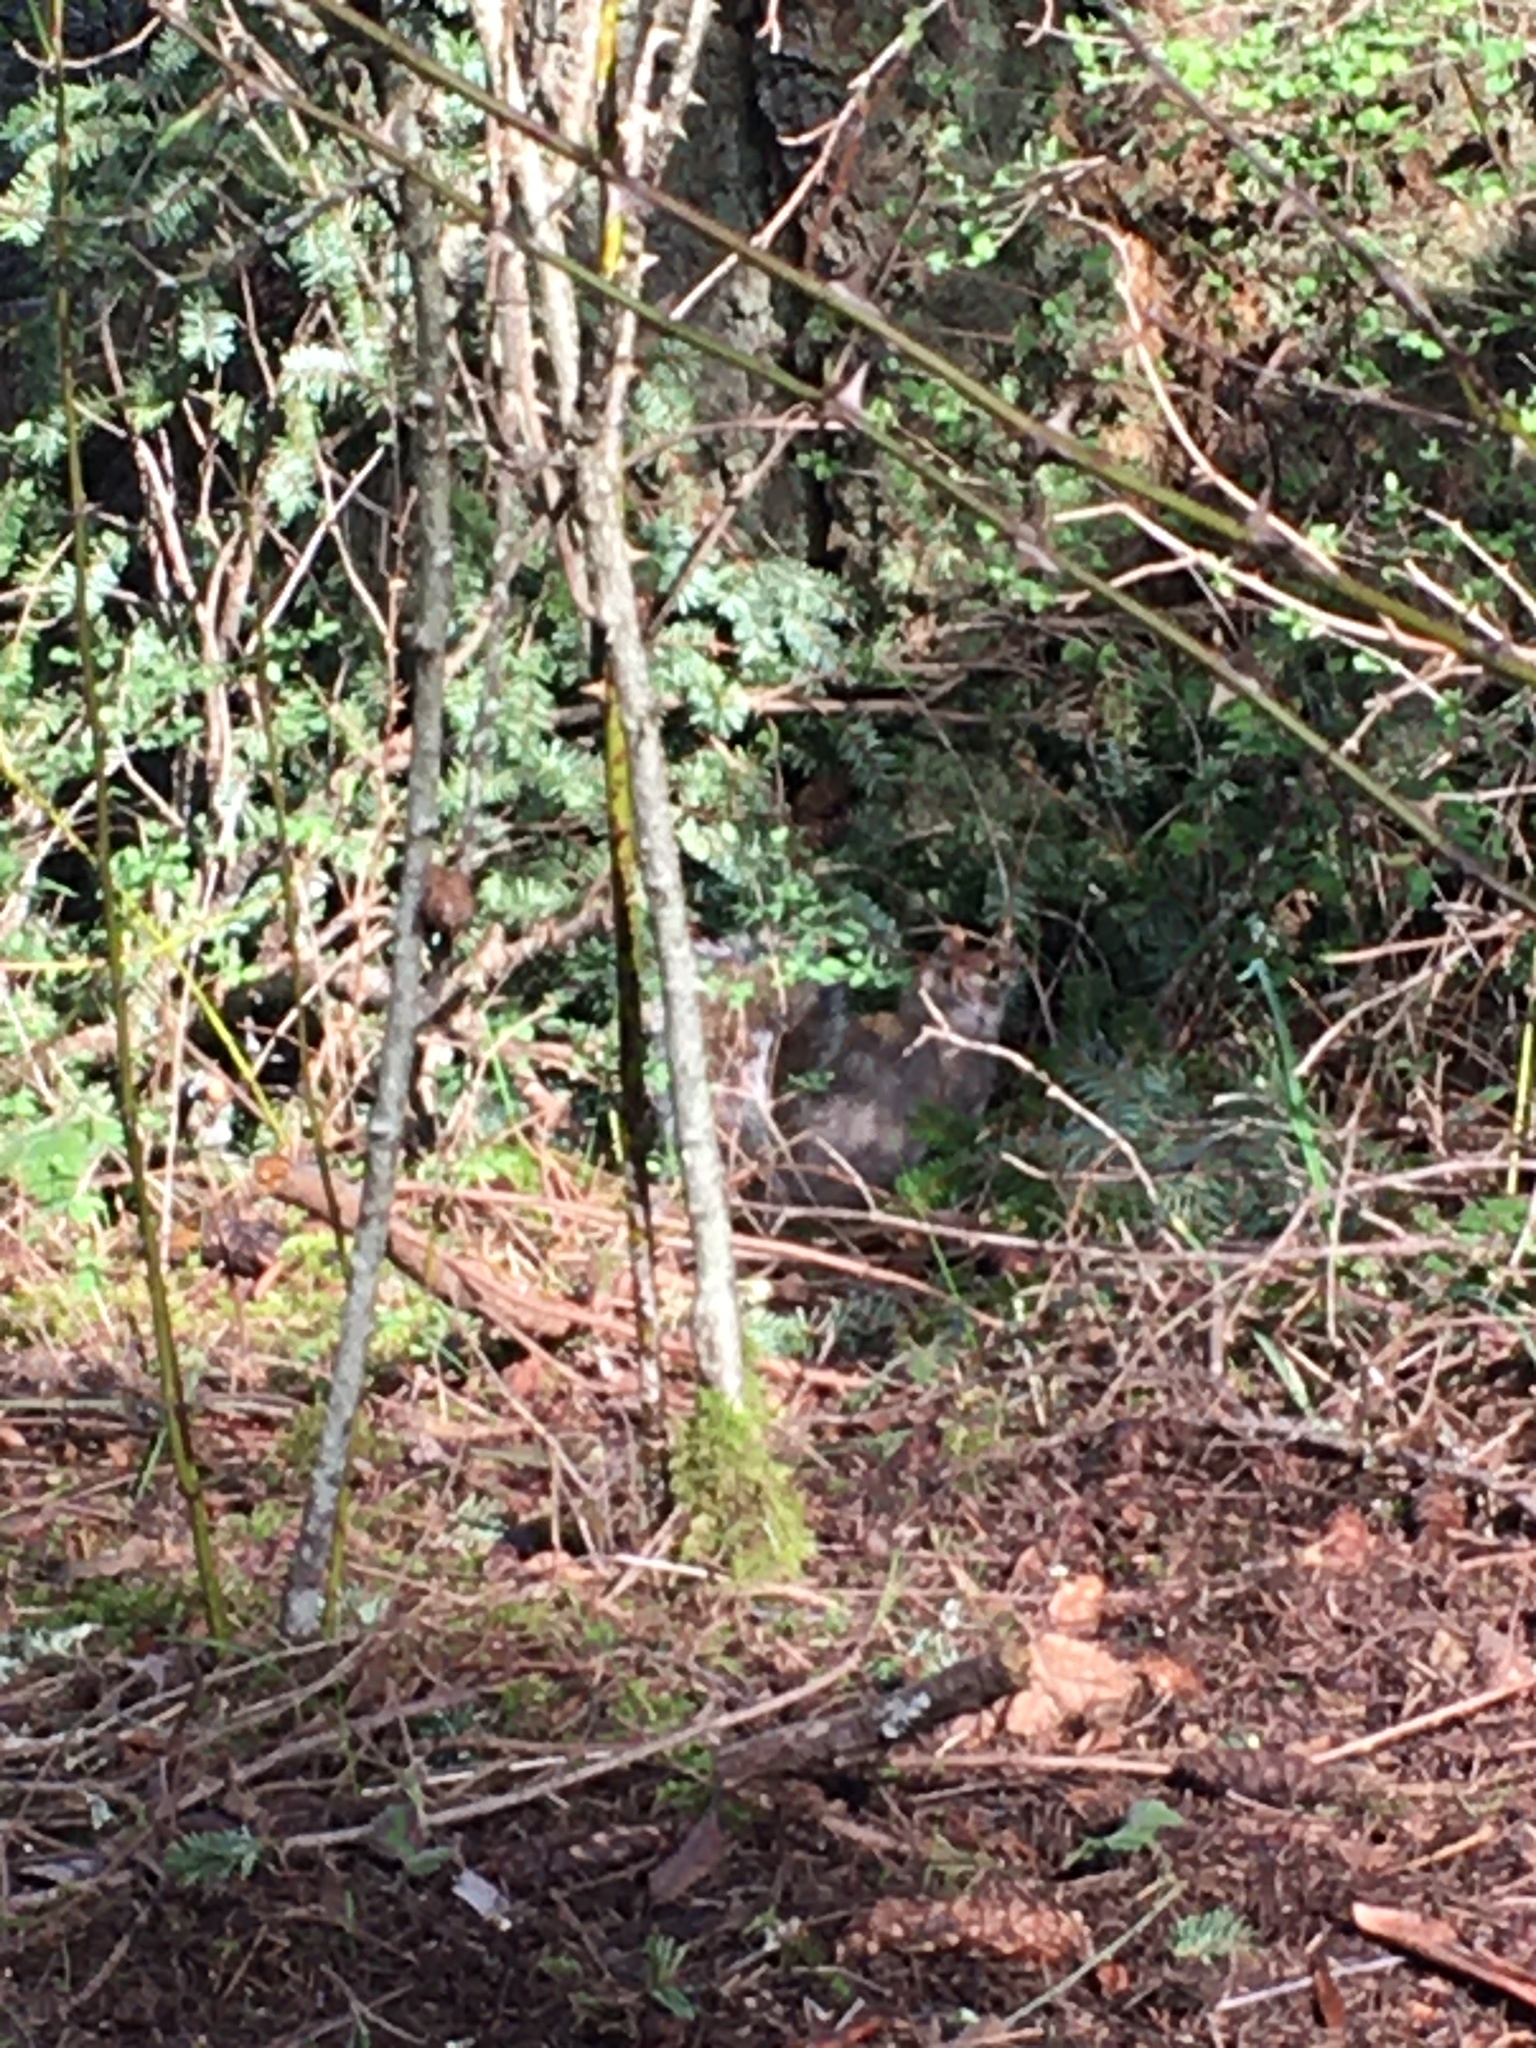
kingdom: Animalia
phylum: Chordata
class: Mammalia
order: Rodentia
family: Sciuridae
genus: Sciurus
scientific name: Sciurus carolinensis
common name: Eastern gray squirrel
